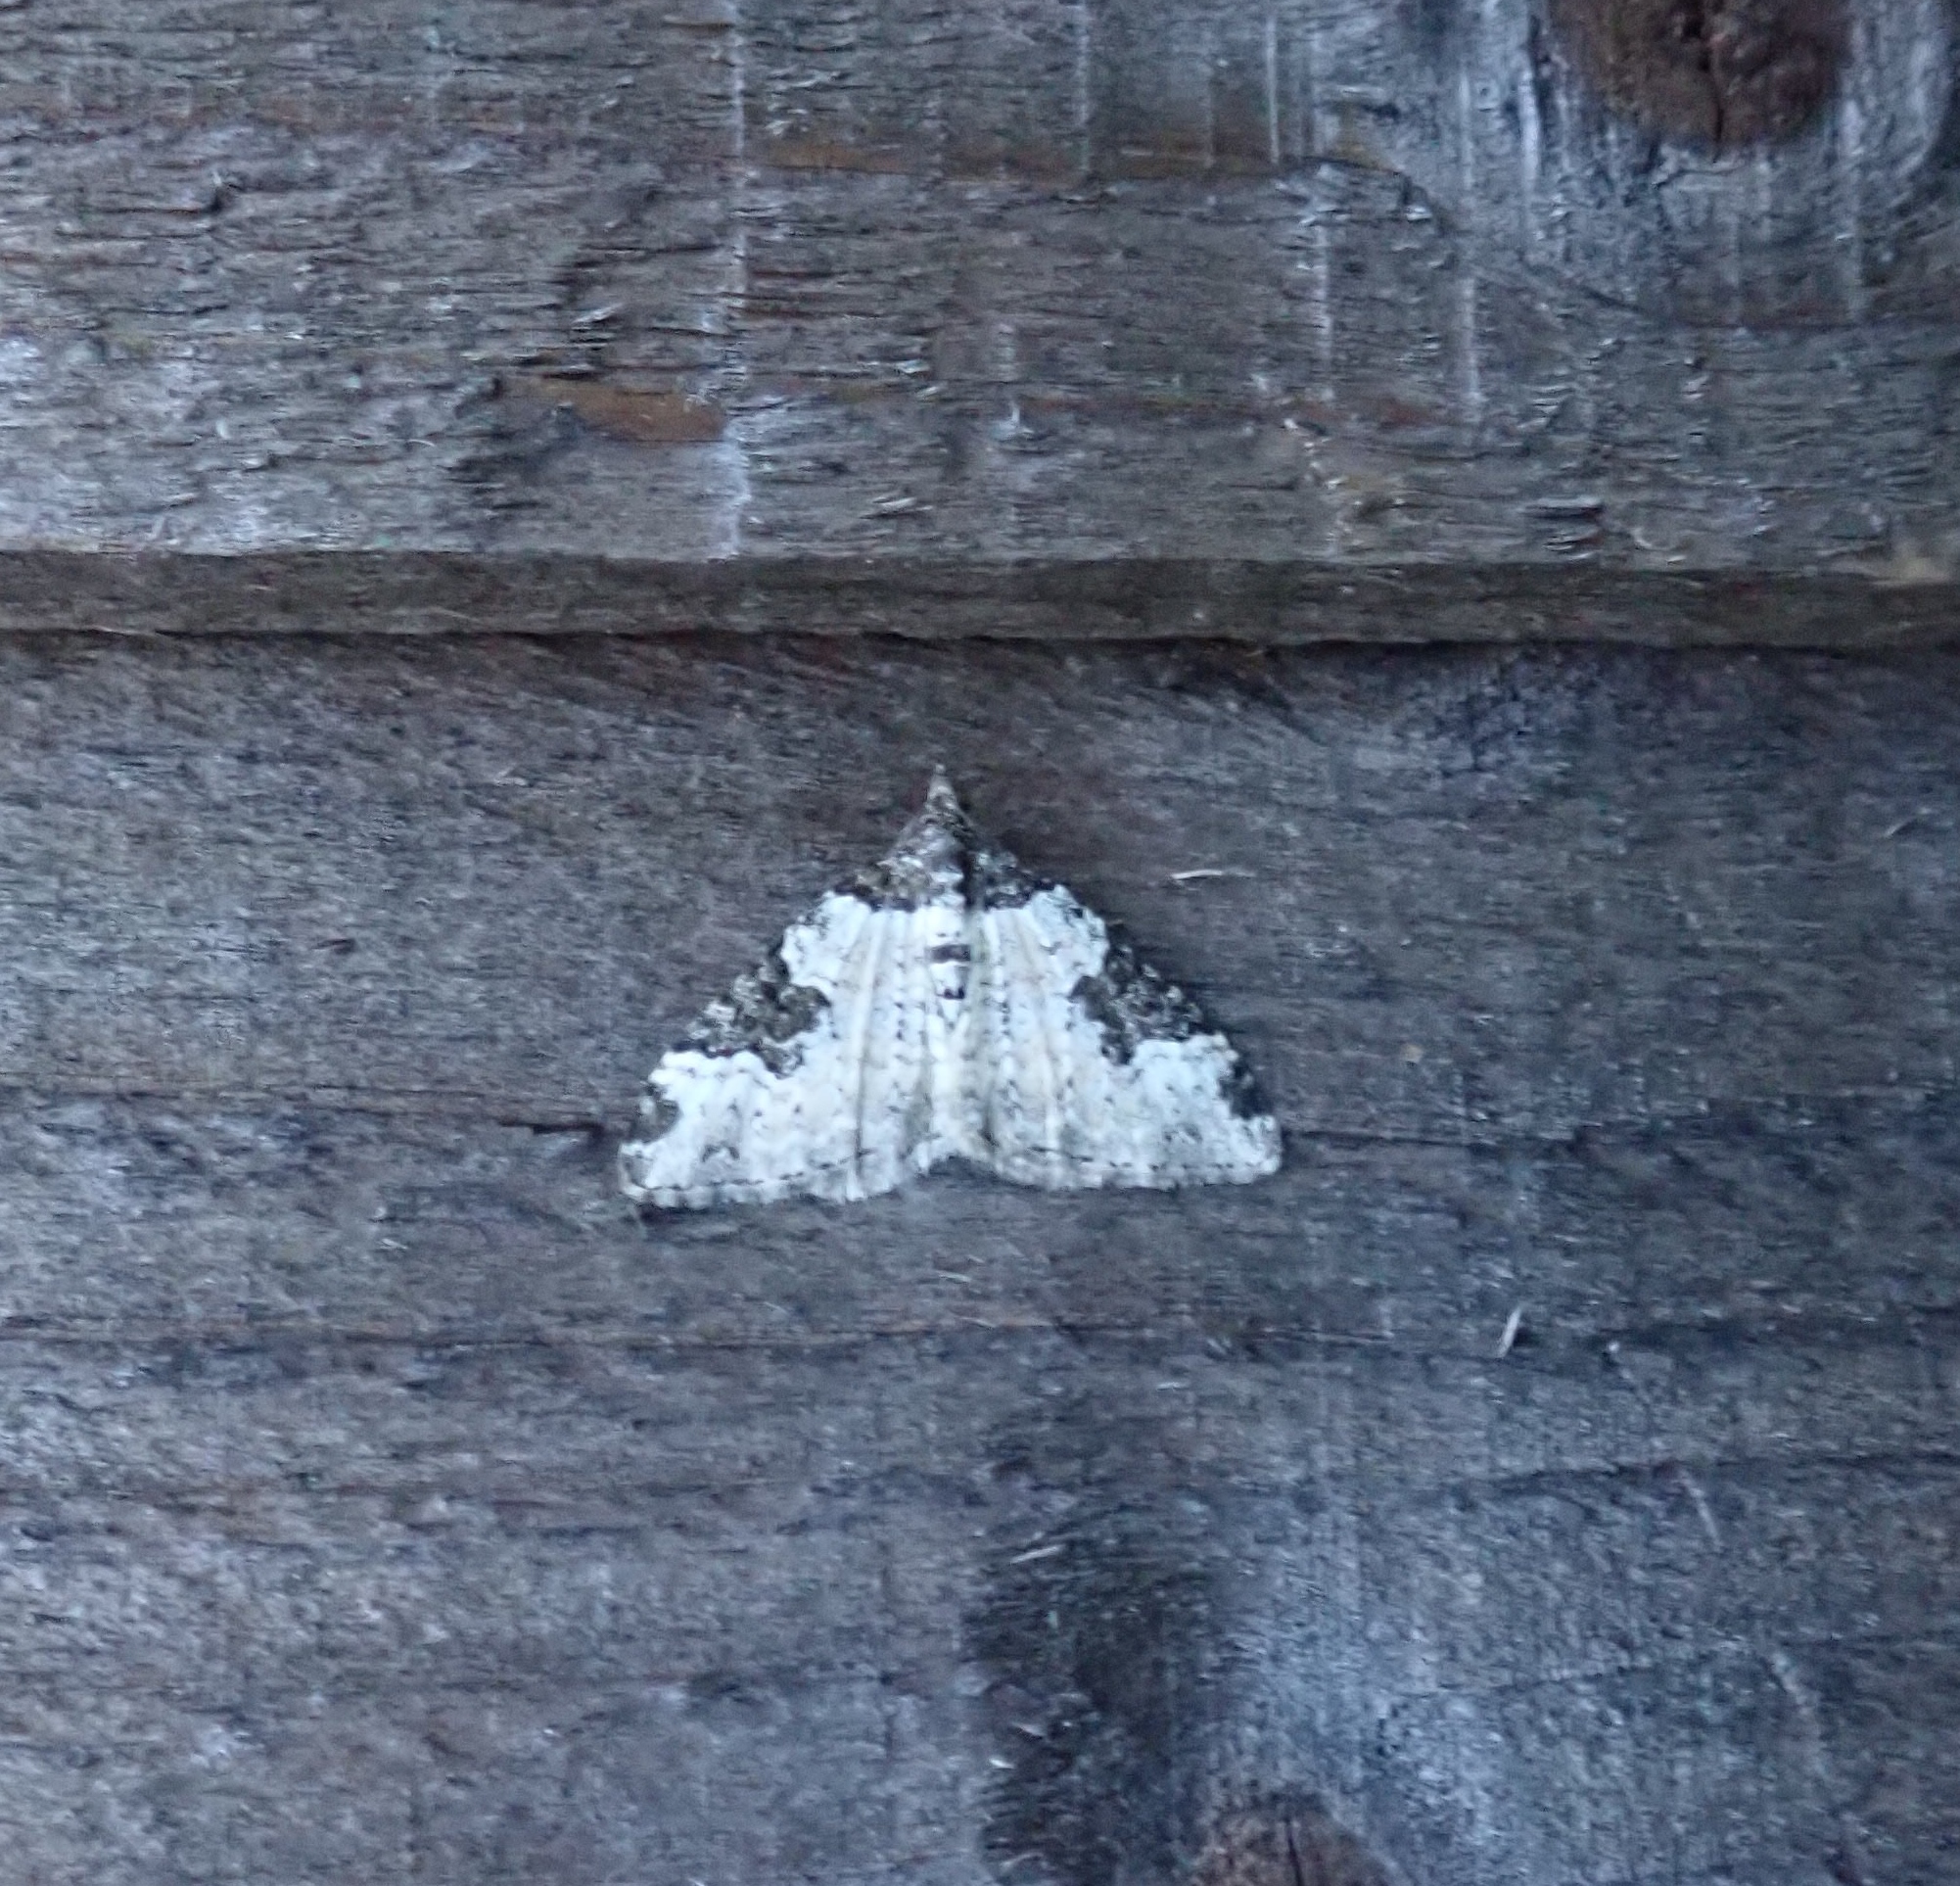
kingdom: Animalia
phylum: Arthropoda
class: Insecta
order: Lepidoptera
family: Geometridae
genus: Xanthorhoe
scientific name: Xanthorhoe fluctuata
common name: Garden carpet
